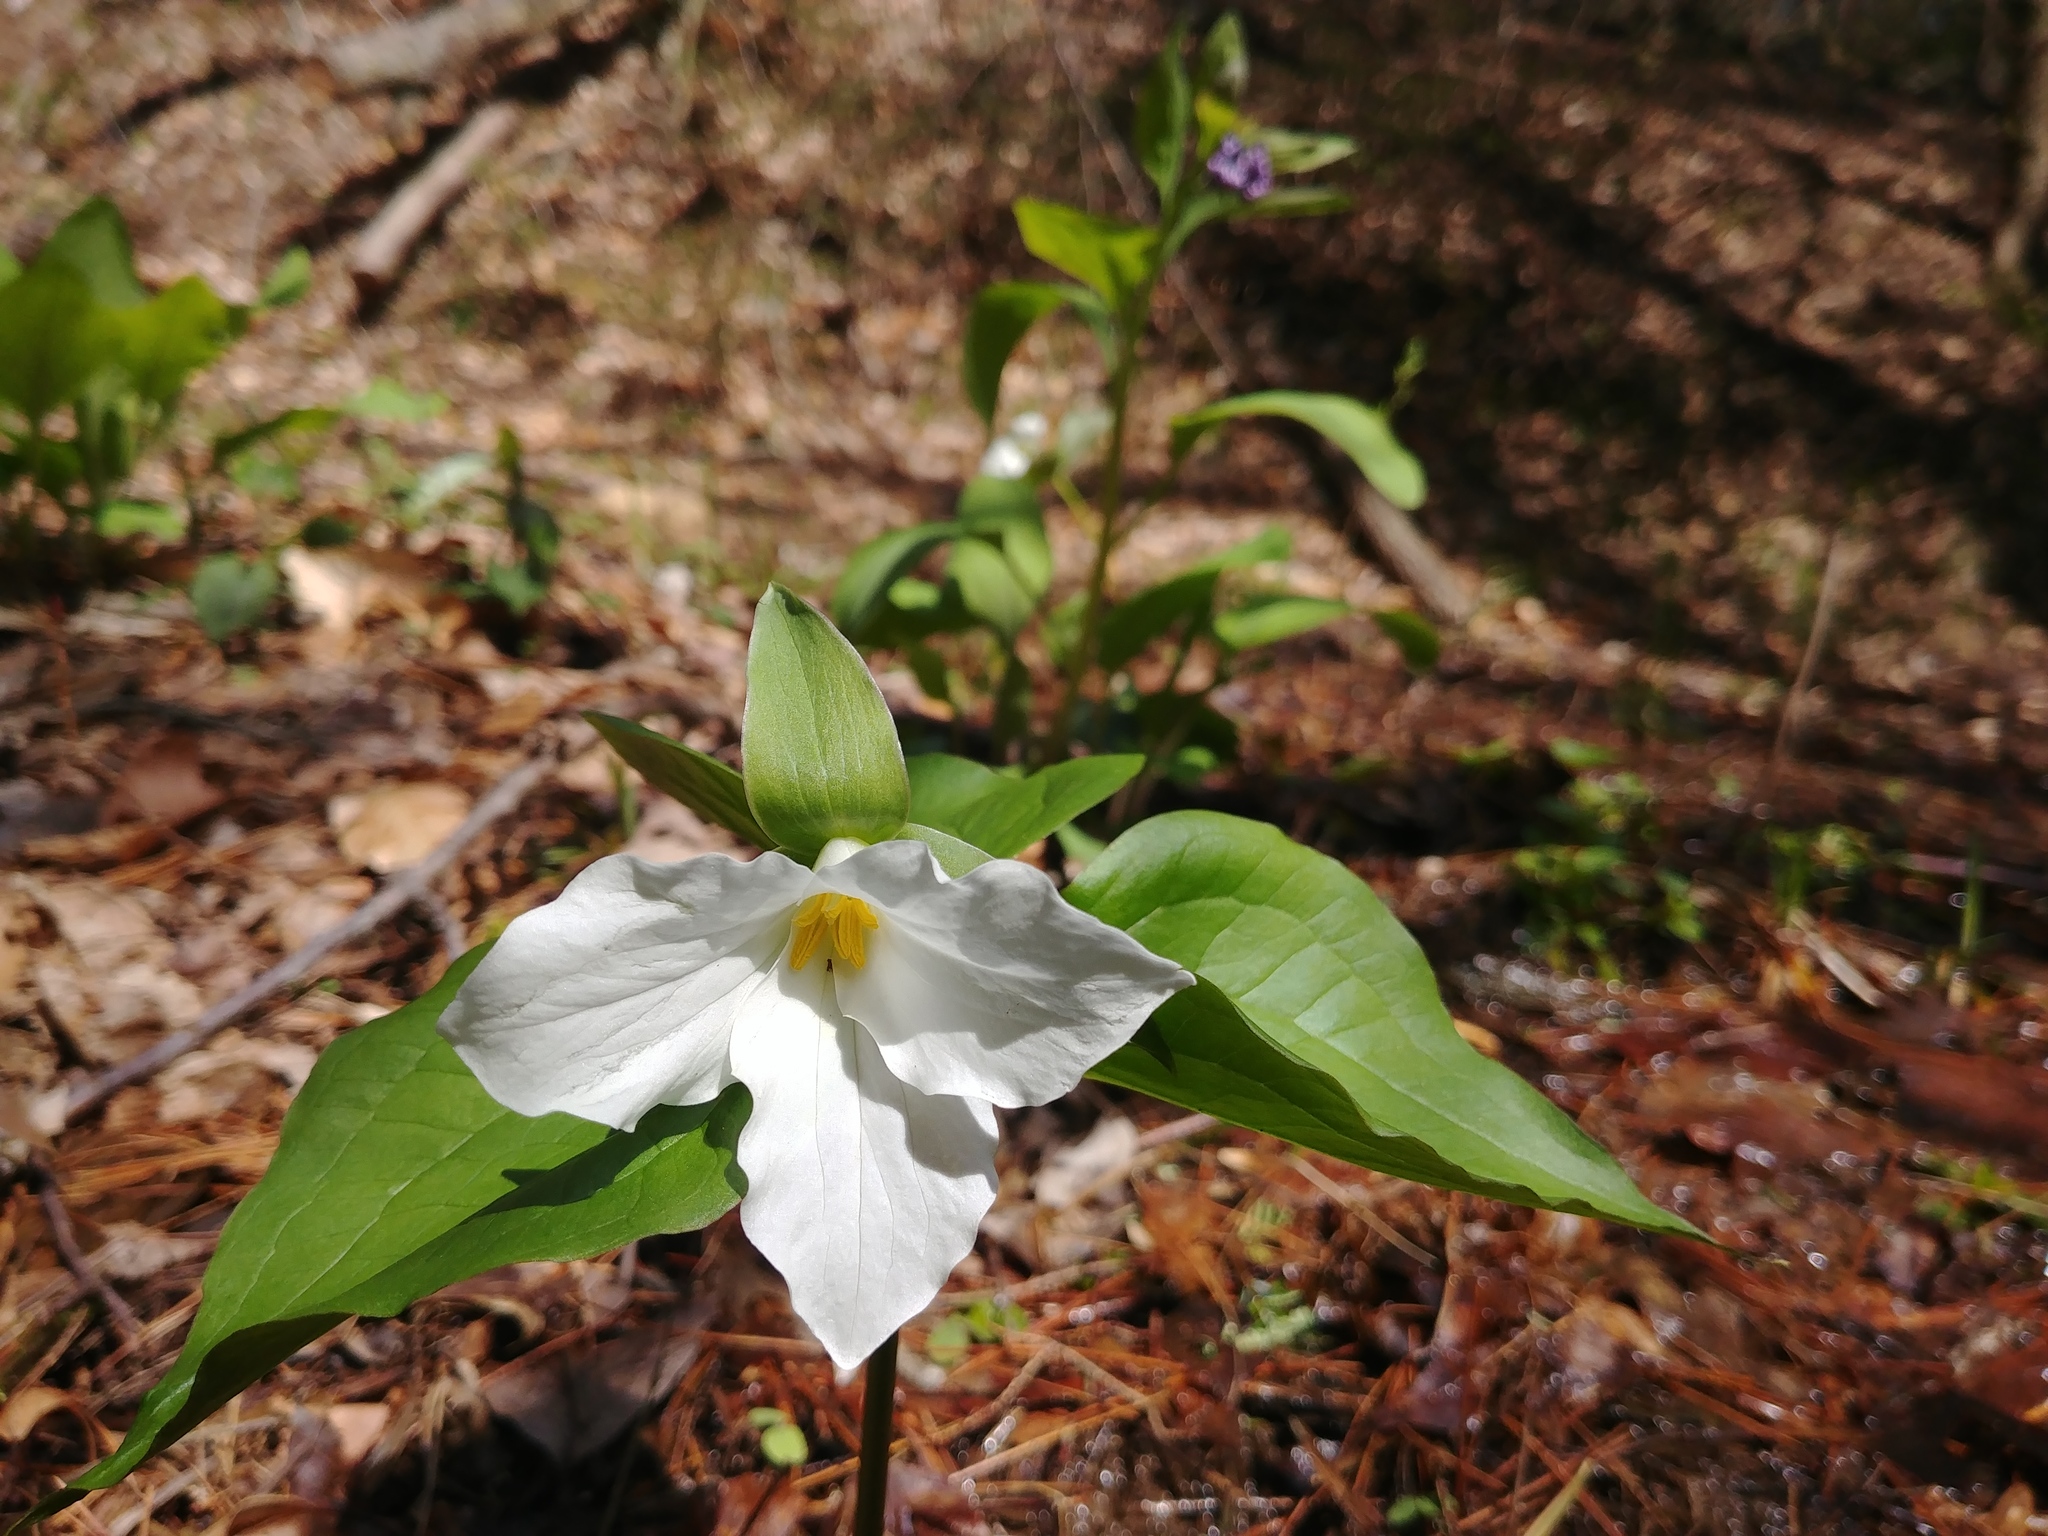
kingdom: Plantae
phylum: Tracheophyta
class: Liliopsida
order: Liliales
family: Melanthiaceae
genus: Trillium
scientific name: Trillium grandiflorum
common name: Great white trillium
